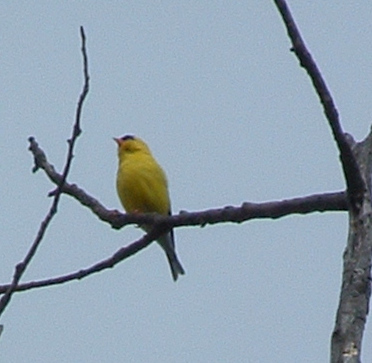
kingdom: Animalia
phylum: Chordata
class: Aves
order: Passeriformes
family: Fringillidae
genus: Spinus
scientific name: Spinus tristis
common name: American goldfinch
